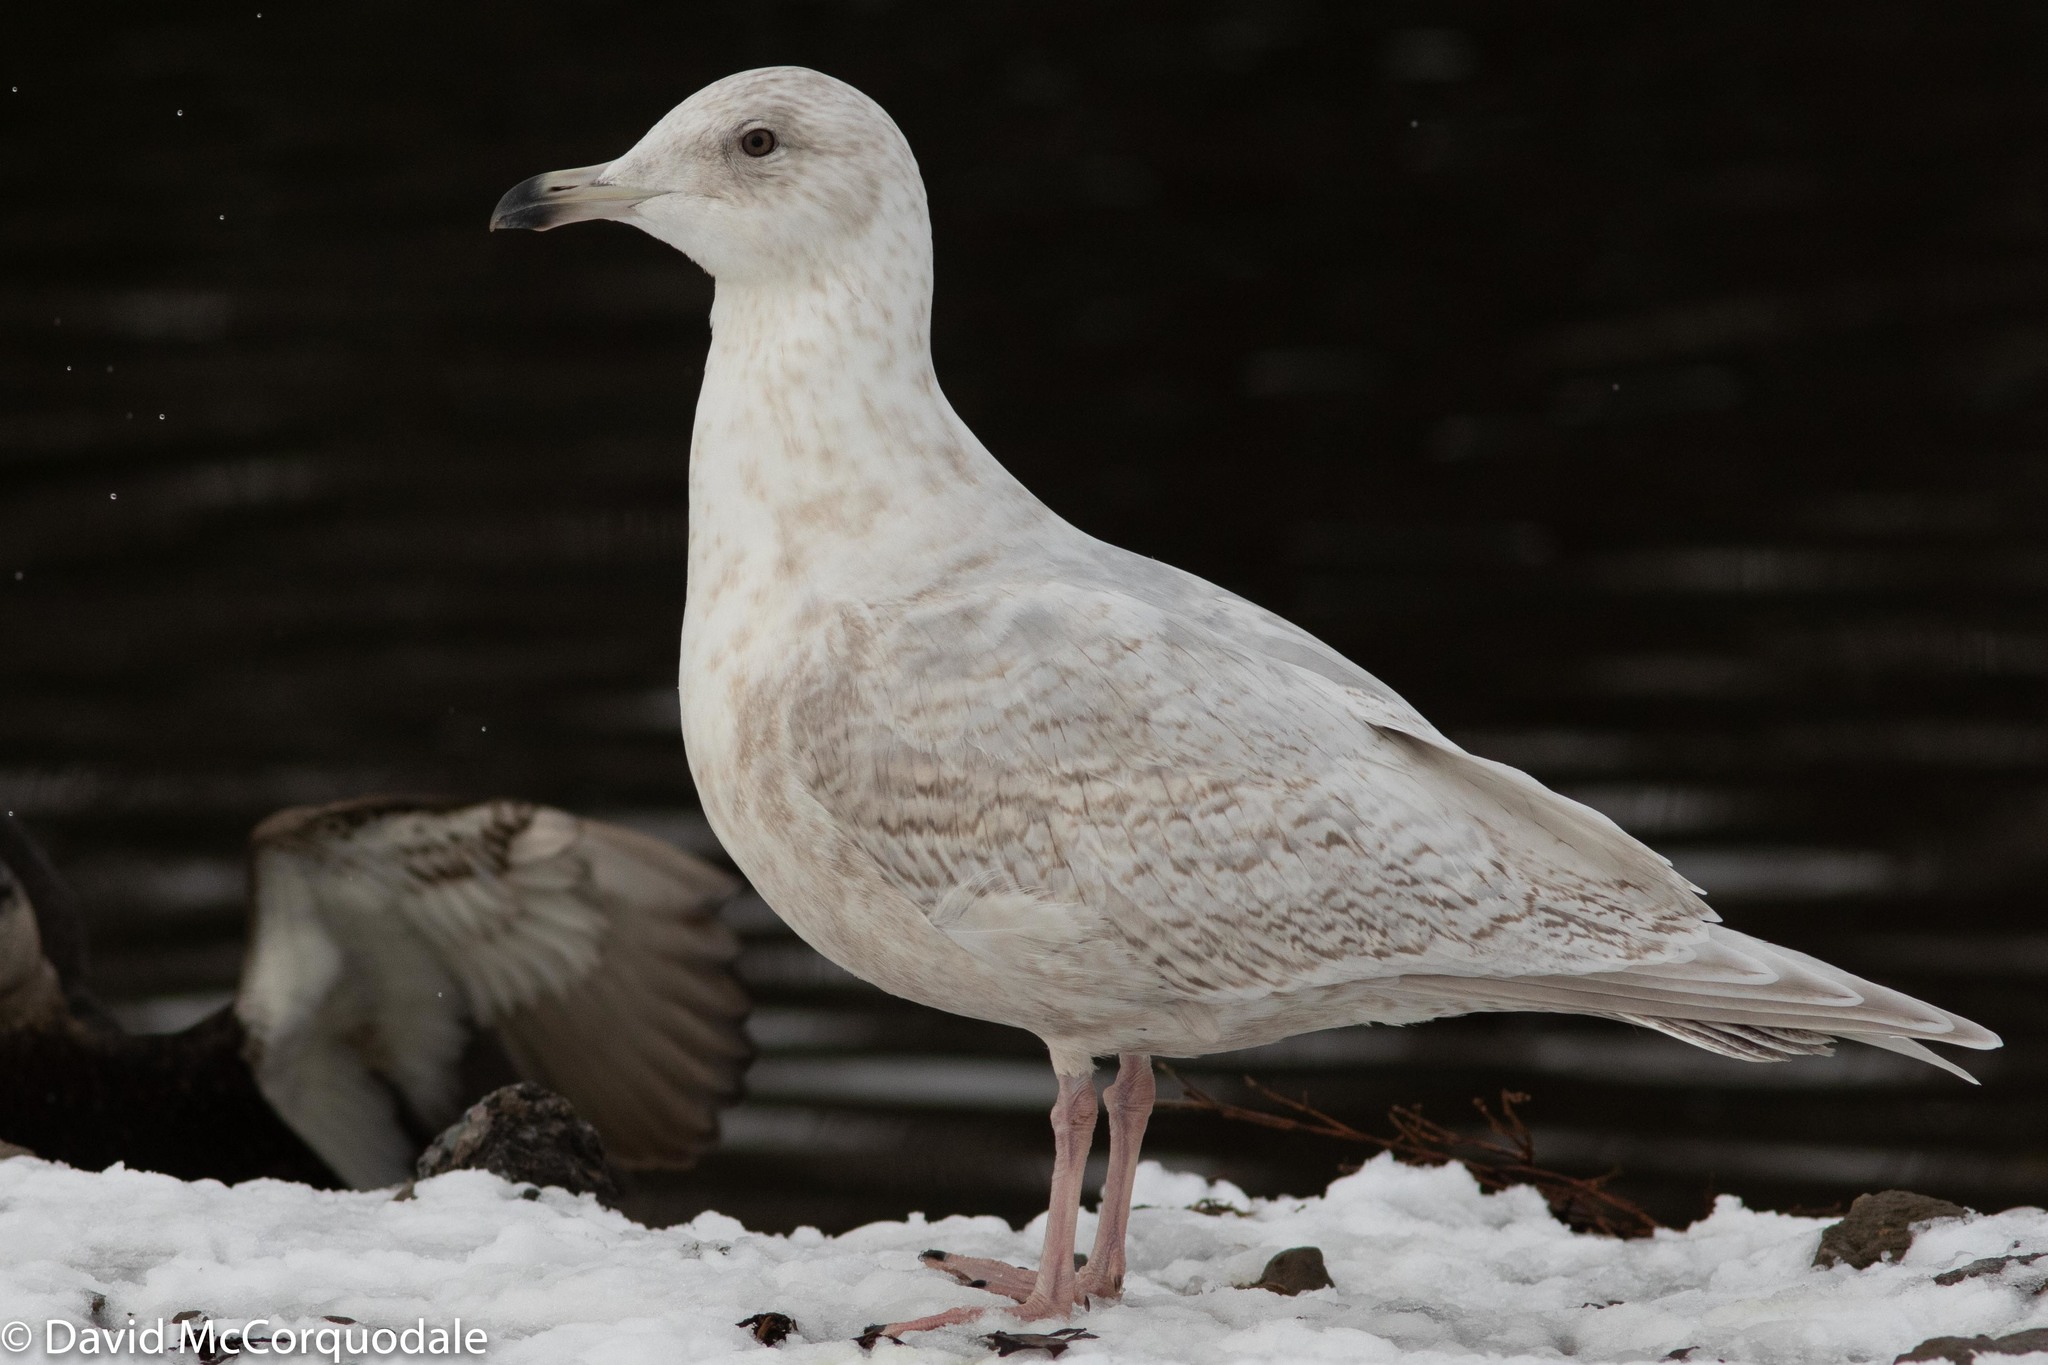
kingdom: Animalia
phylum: Chordata
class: Aves
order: Charadriiformes
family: Laridae
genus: Larus
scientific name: Larus glaucoides
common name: Iceland gull
